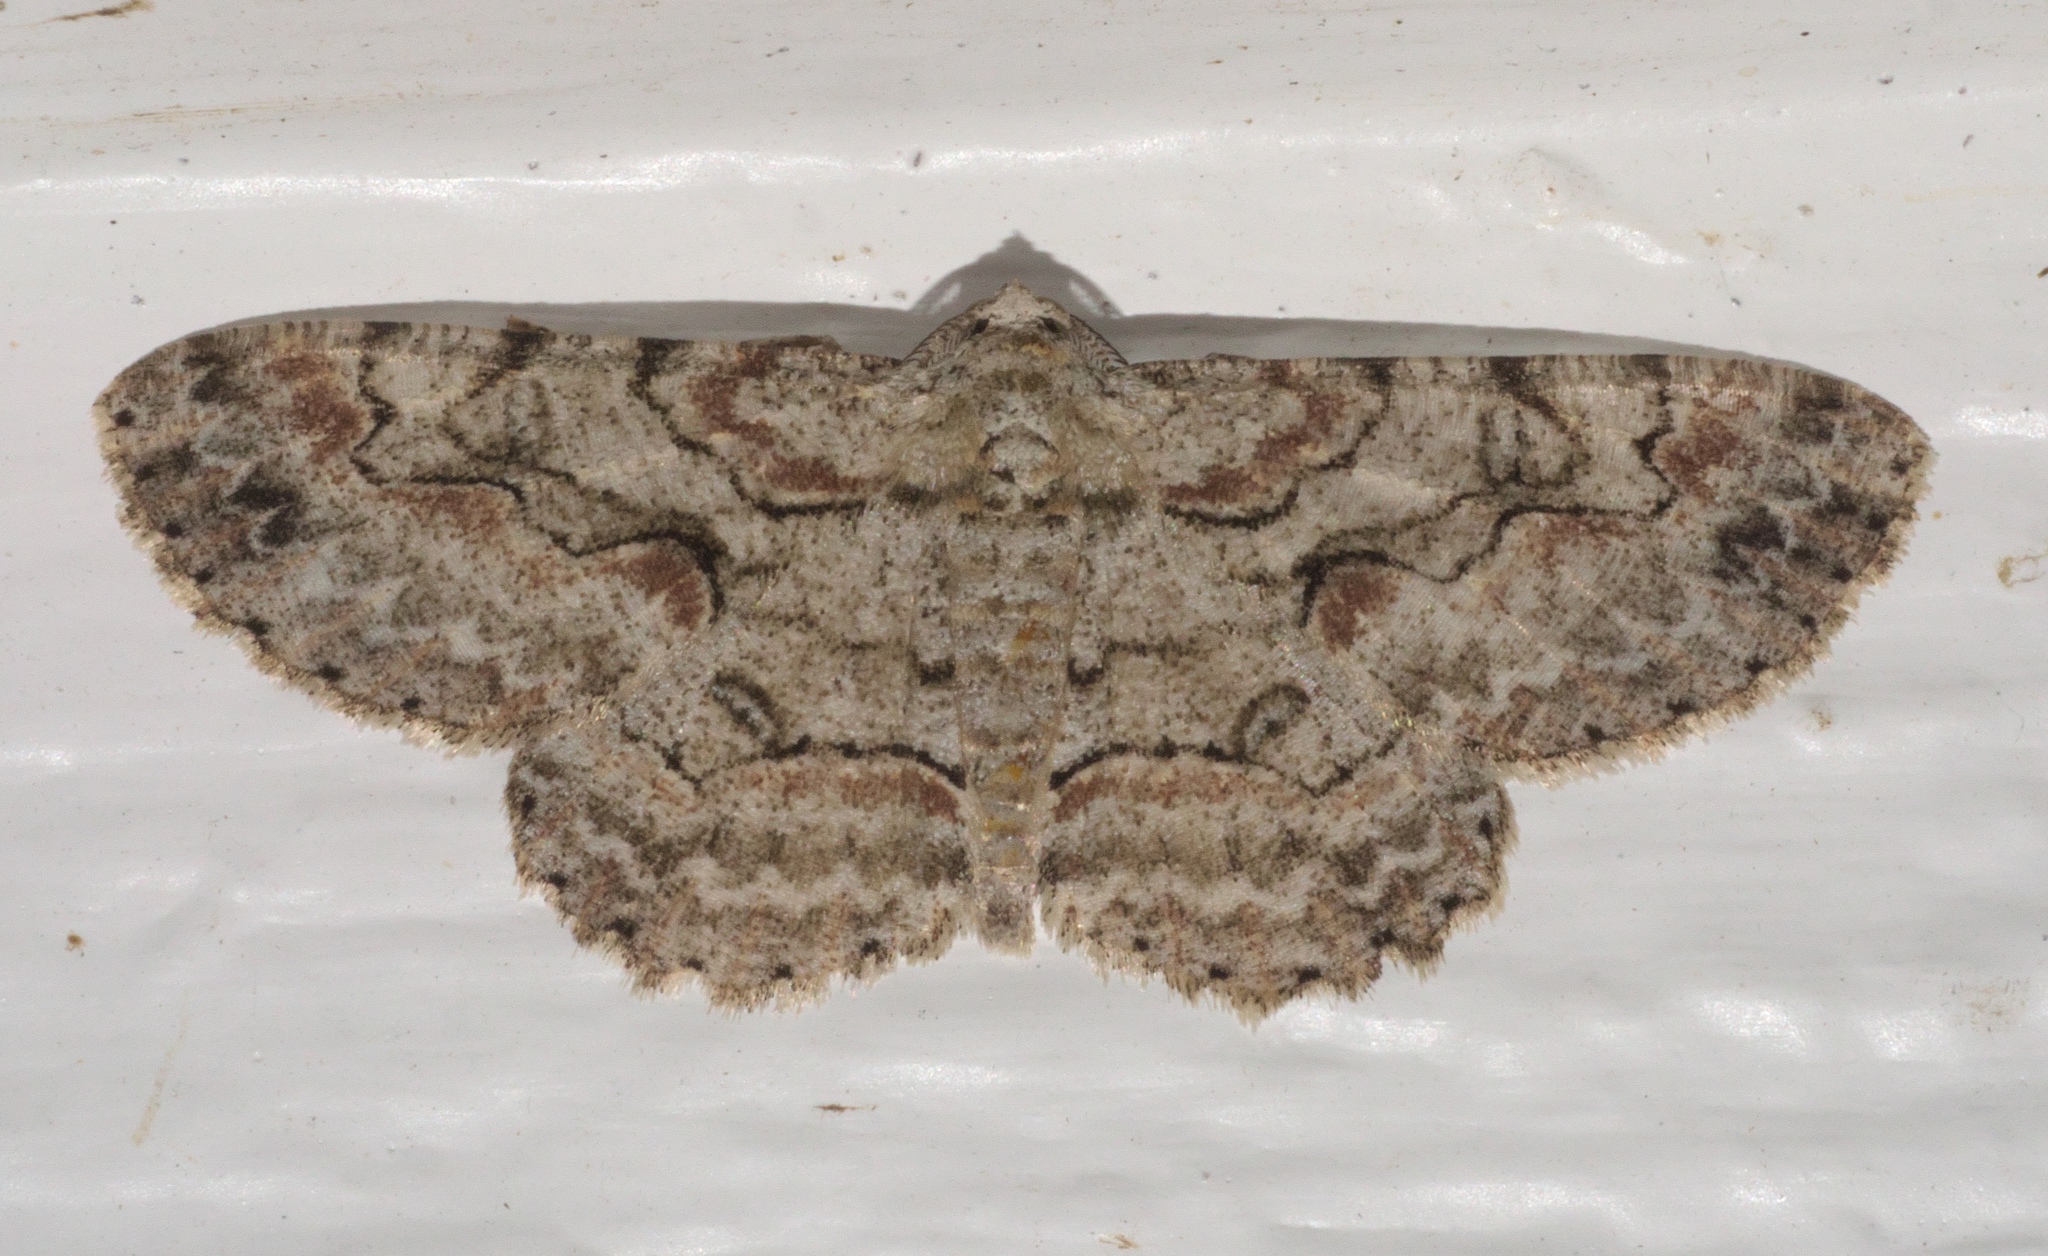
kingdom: Animalia
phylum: Arthropoda
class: Insecta
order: Lepidoptera
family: Geometridae
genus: Iridopsis
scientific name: Iridopsis defectaria
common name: Brown-shaded gray
